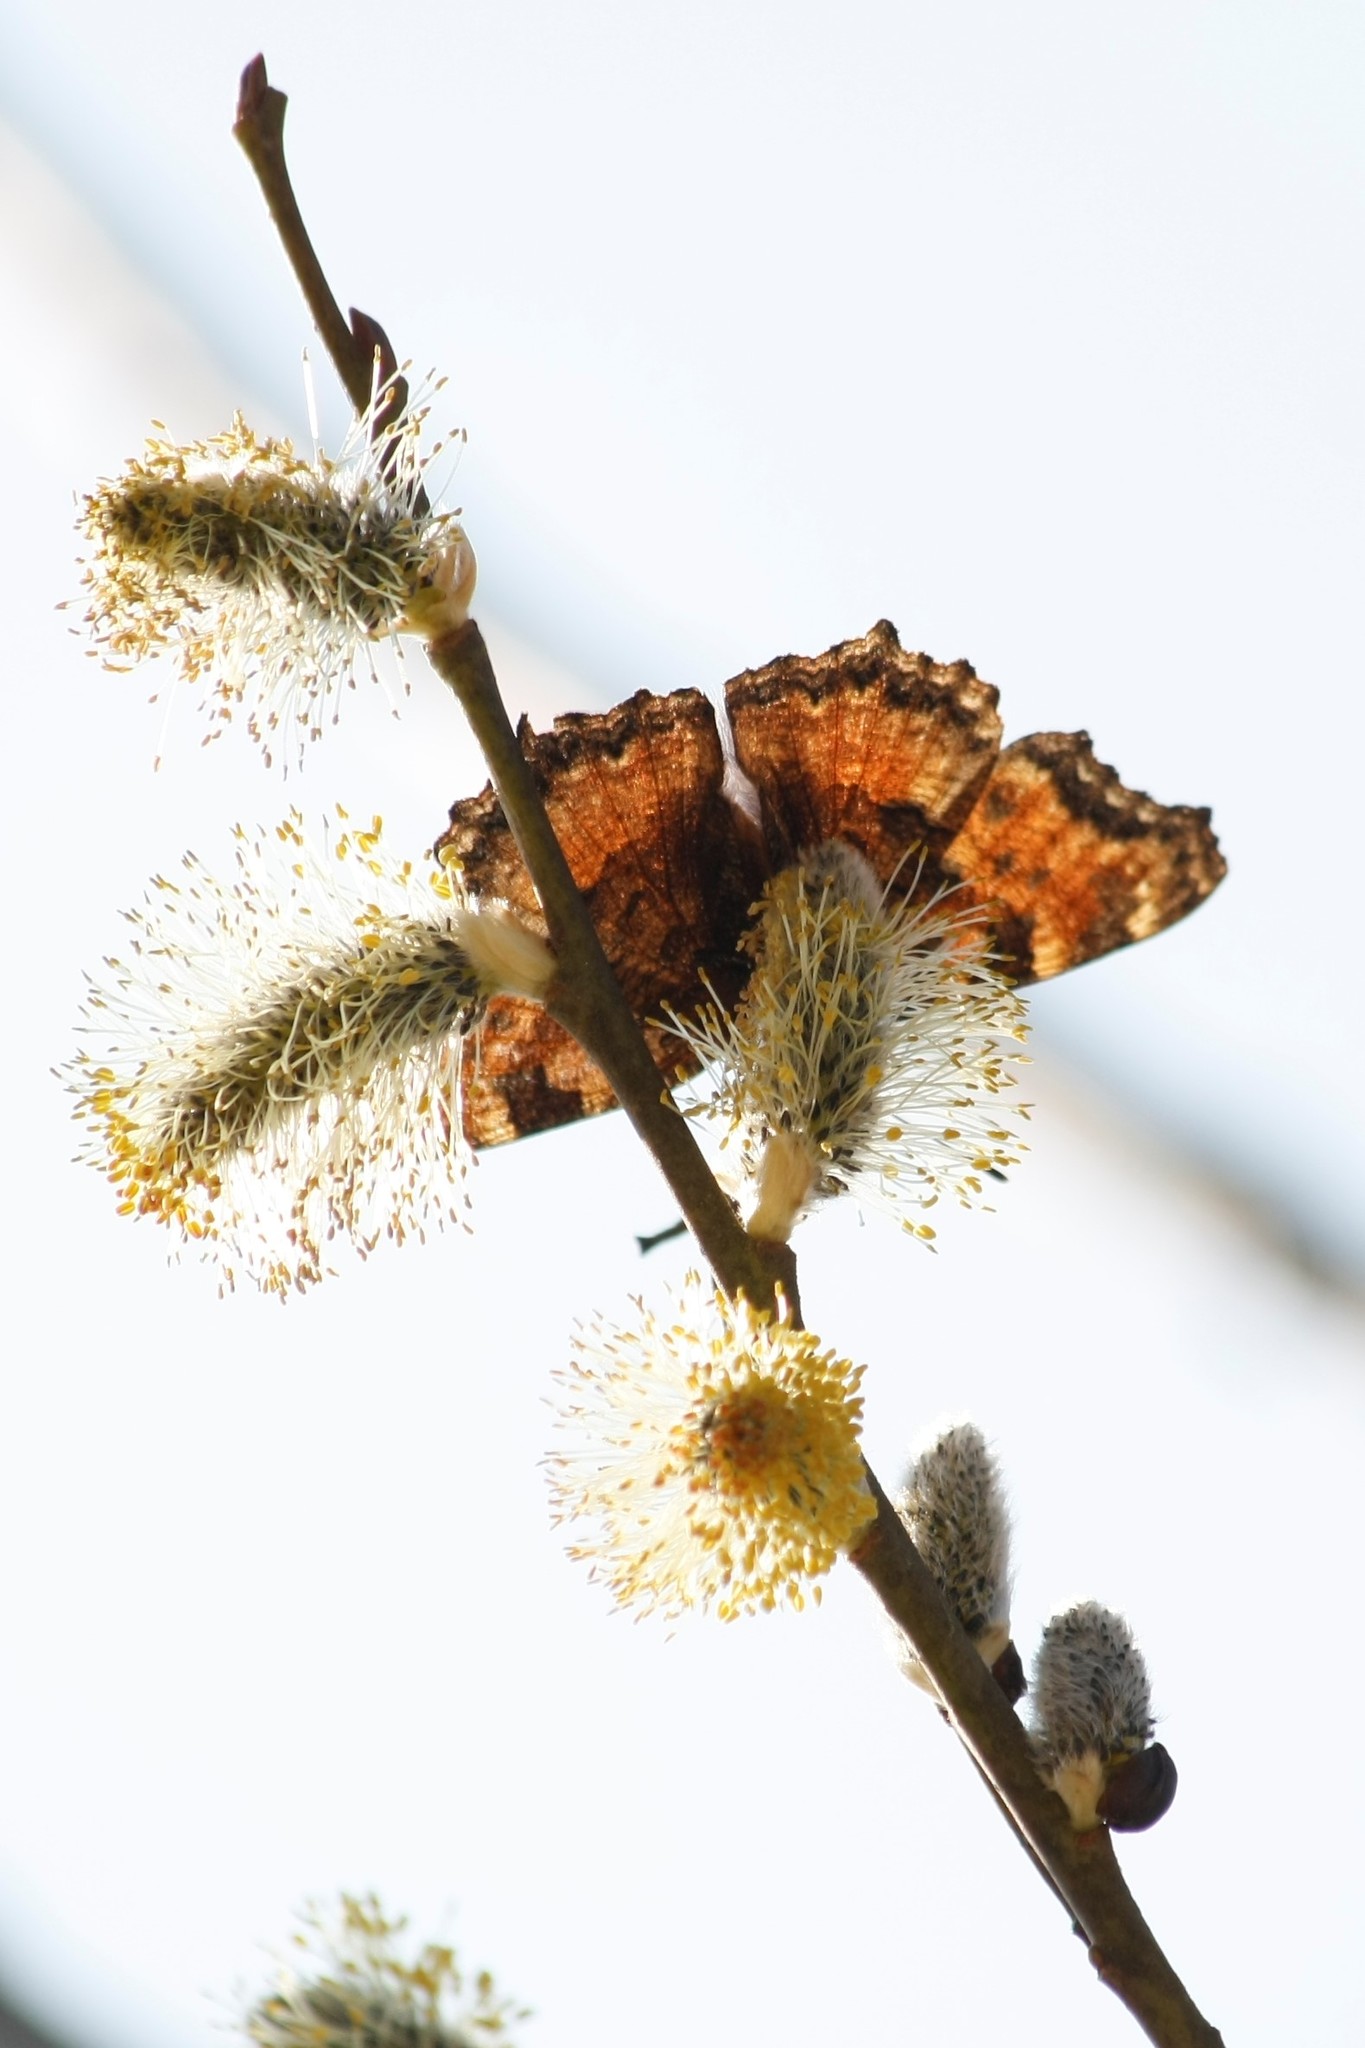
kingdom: Animalia
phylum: Arthropoda
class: Insecta
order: Lepidoptera
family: Nymphalidae
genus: Nymphalis
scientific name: Nymphalis polychloros
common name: Large tortoiseshell
